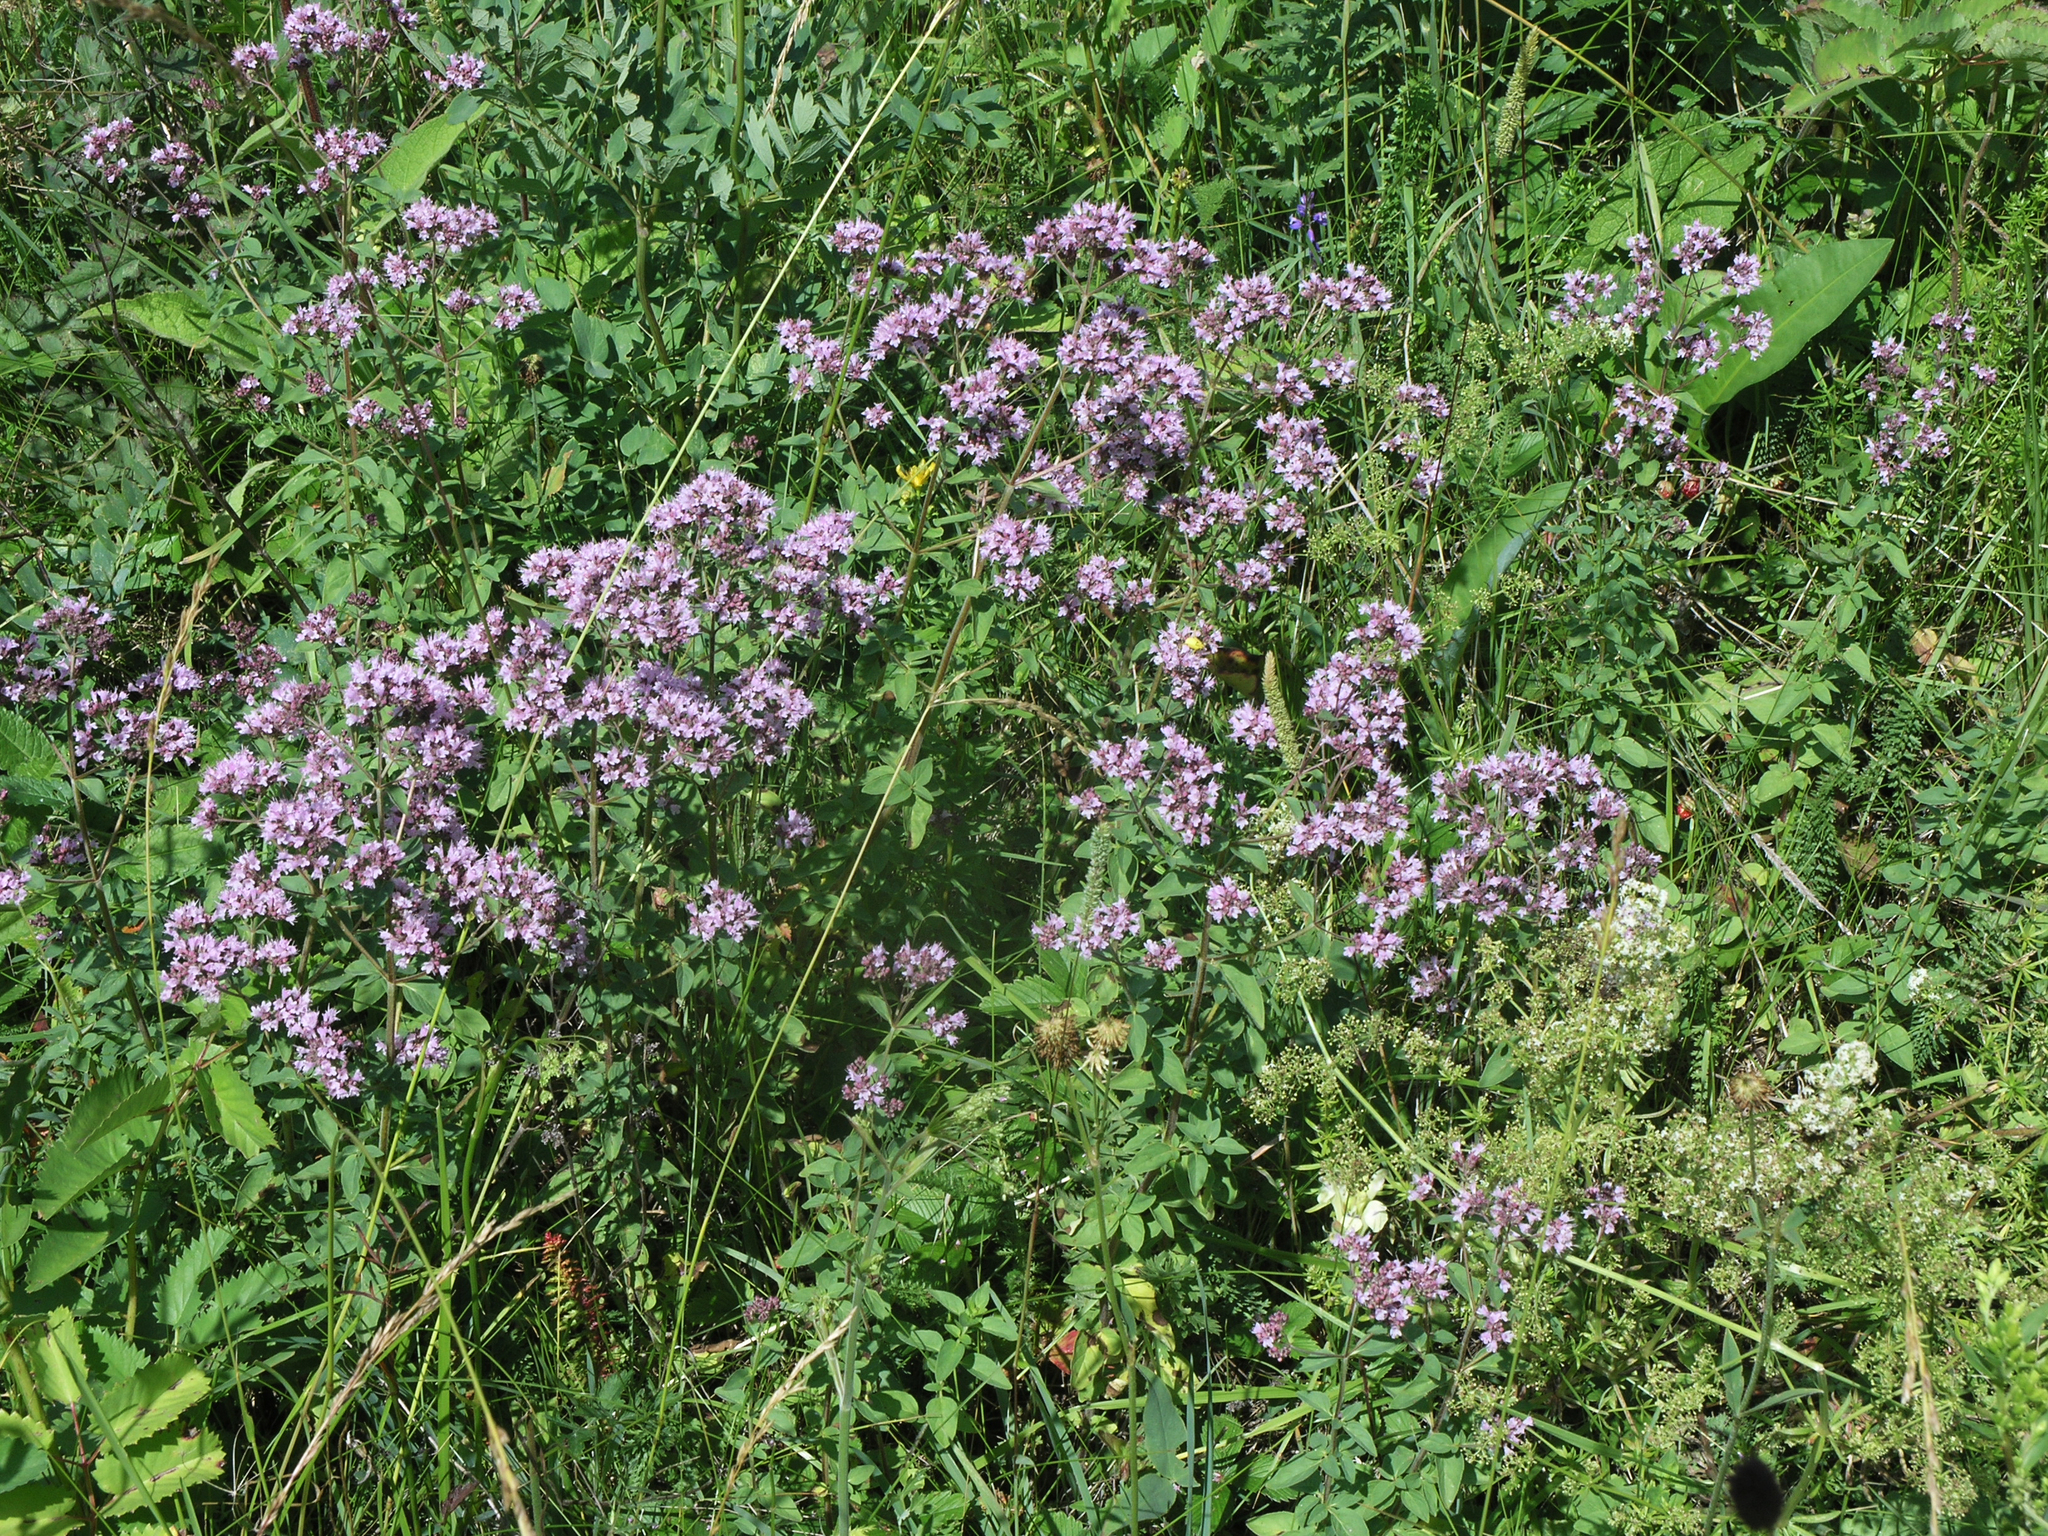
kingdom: Plantae
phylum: Tracheophyta
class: Magnoliopsida
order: Lamiales
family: Lamiaceae
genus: Origanum
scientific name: Origanum vulgare
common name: Wild marjoram
